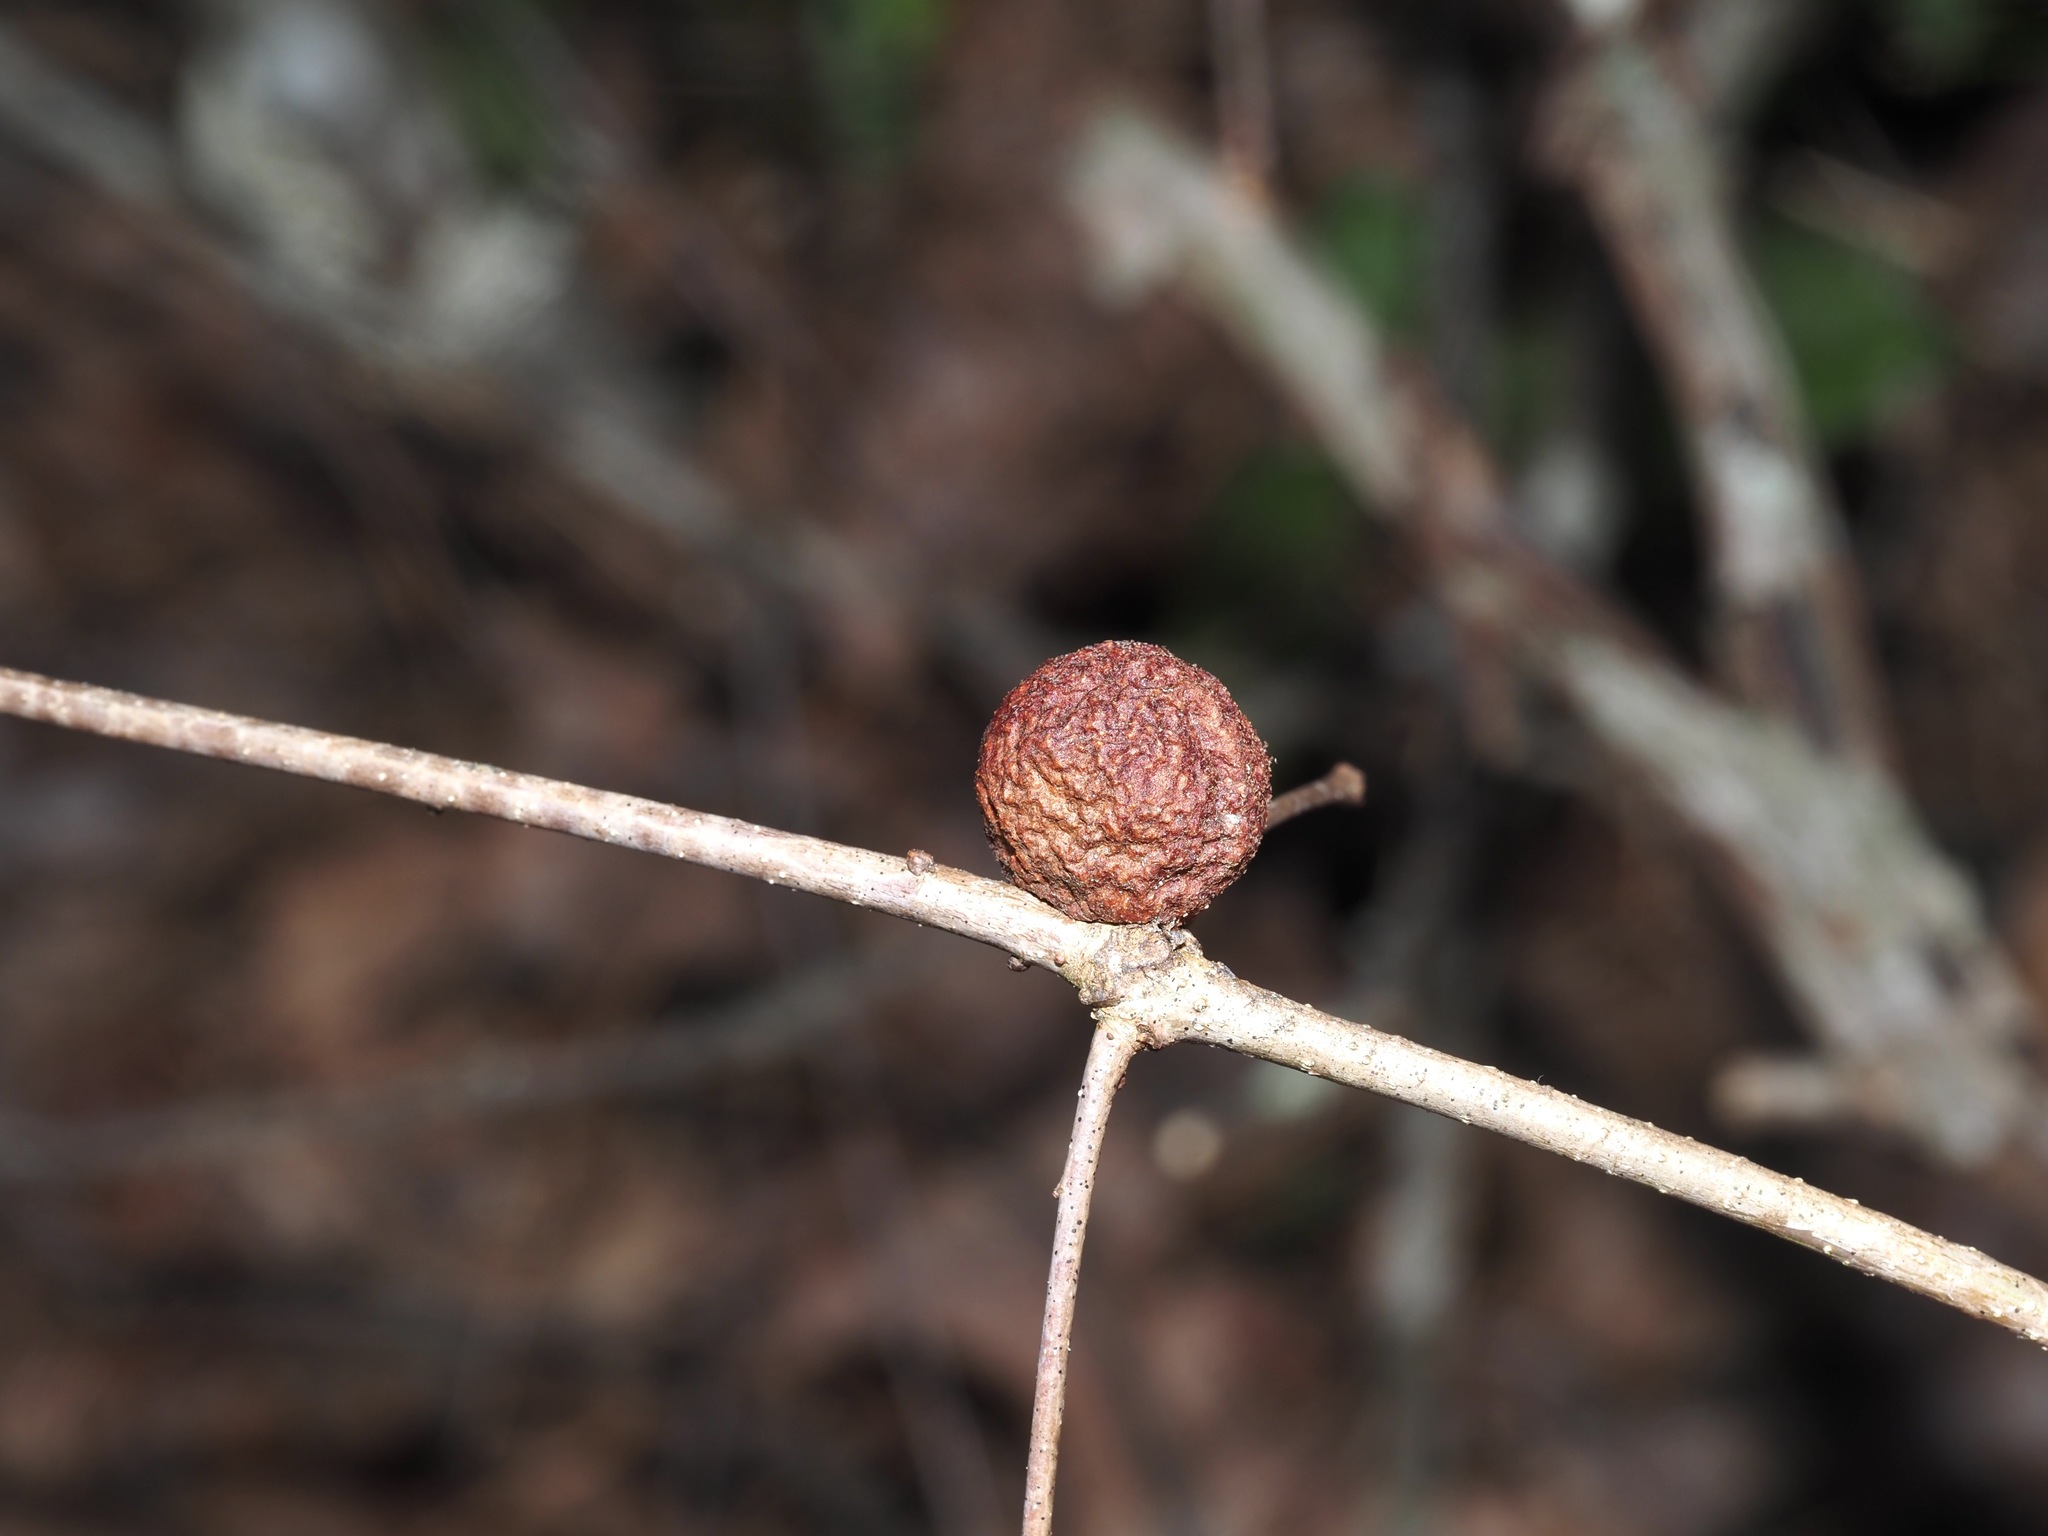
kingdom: Animalia
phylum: Arthropoda
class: Insecta
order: Hymenoptera
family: Cynipidae
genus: Disholcaspis
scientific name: Disholcaspis quercusglobulus
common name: Round bullet gall wasp
